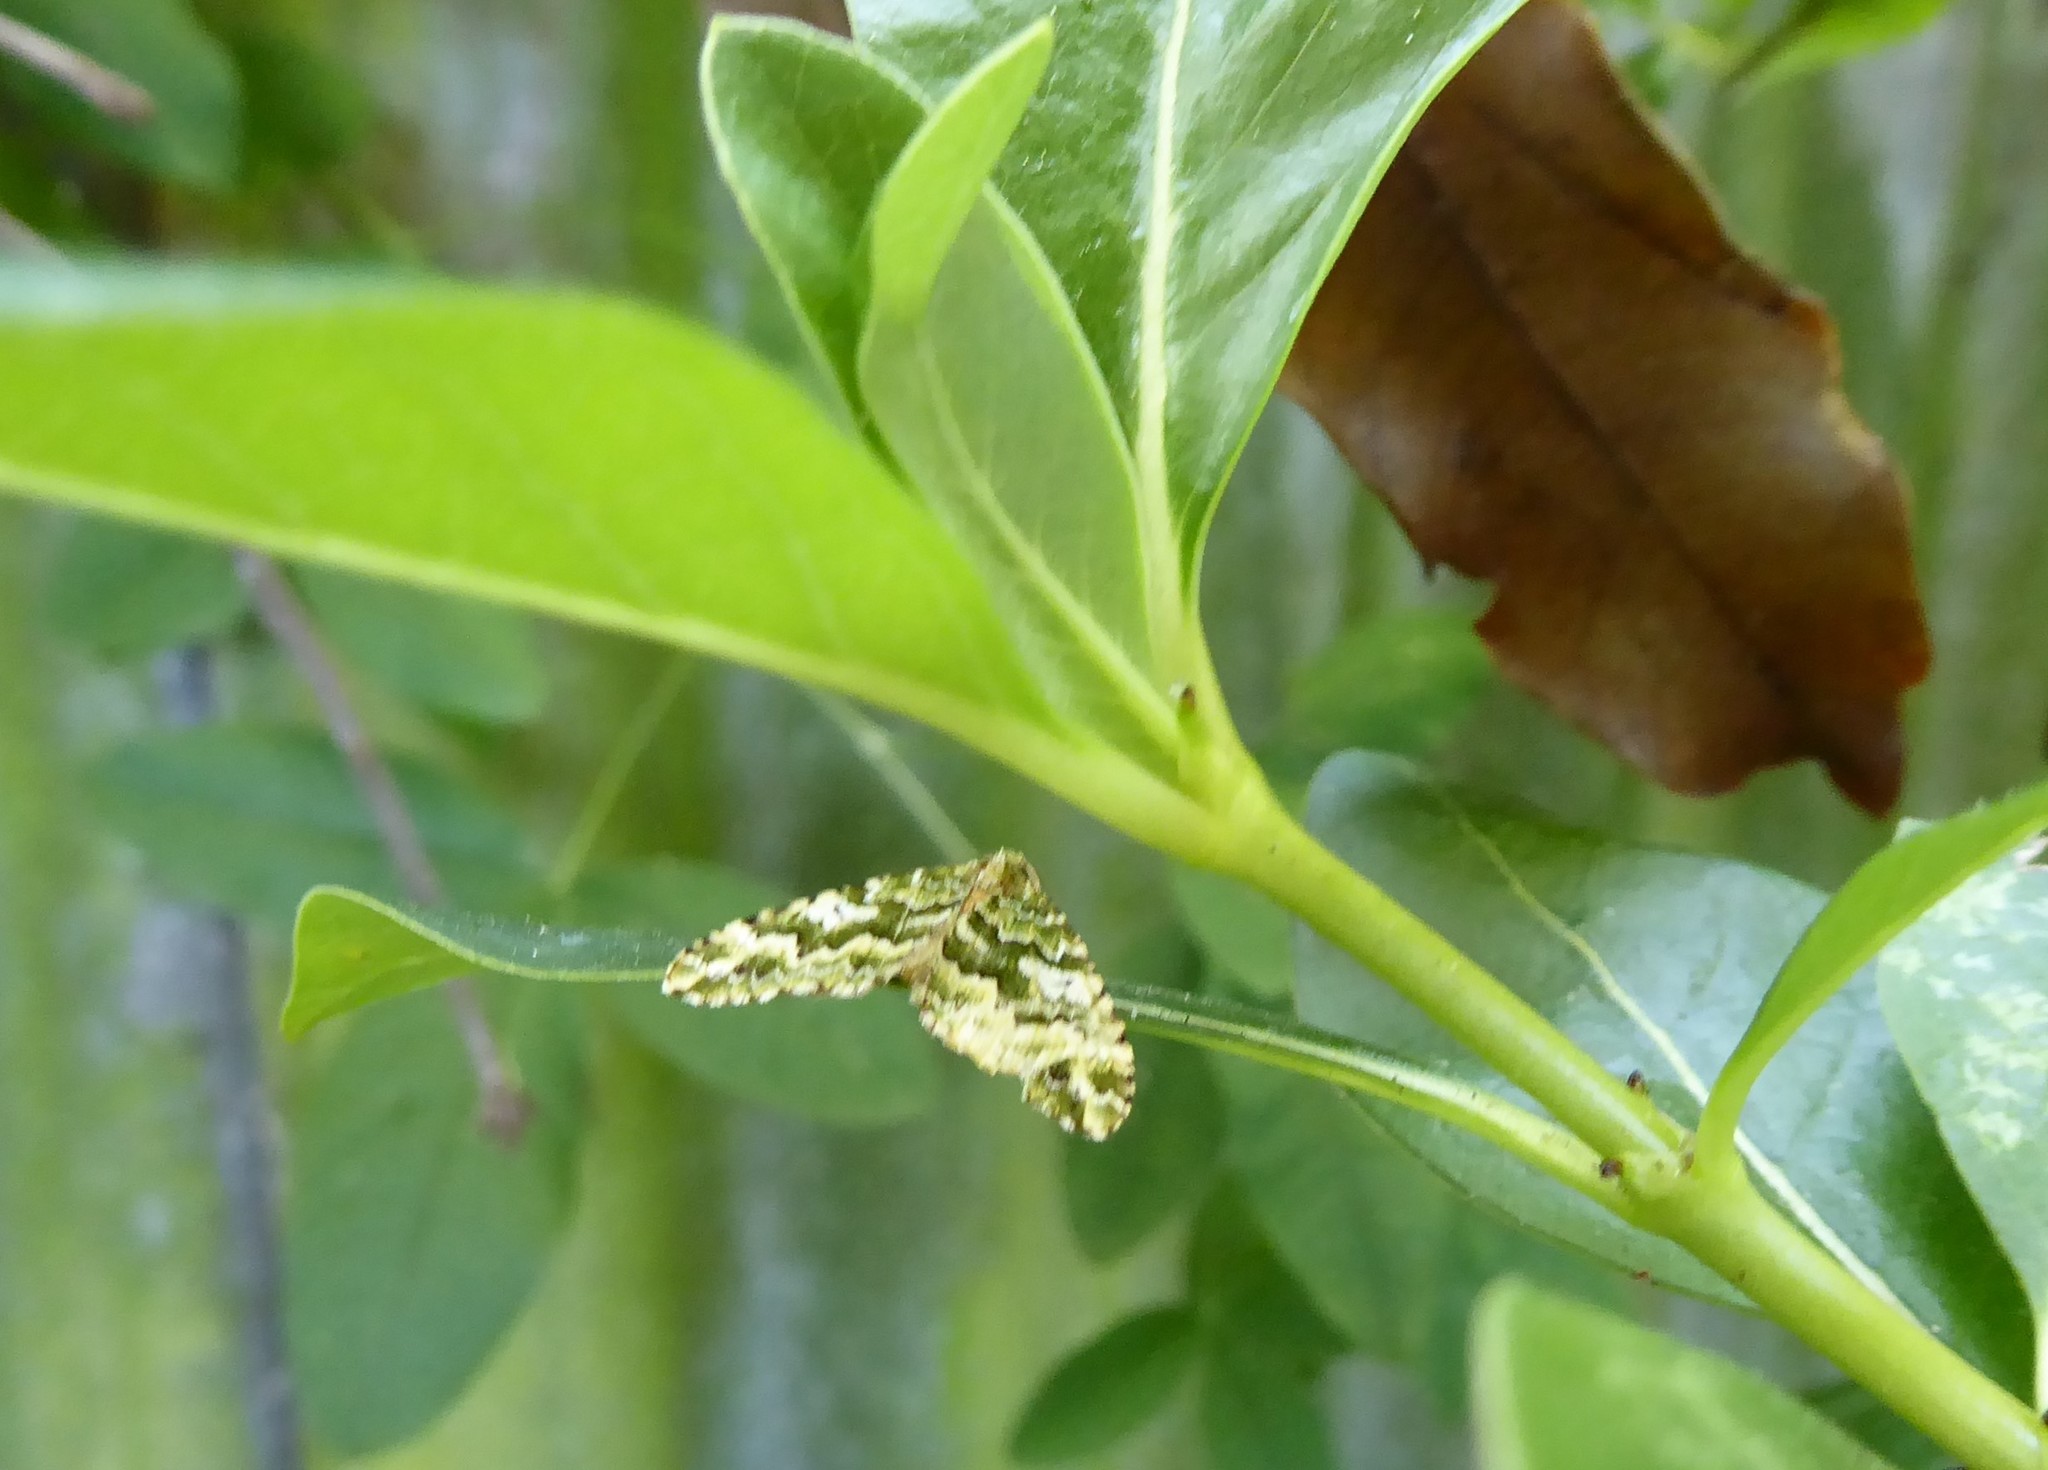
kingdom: Animalia
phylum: Arthropoda
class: Insecta
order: Lepidoptera
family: Geometridae
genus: Asaphodes
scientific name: Asaphodes beata
